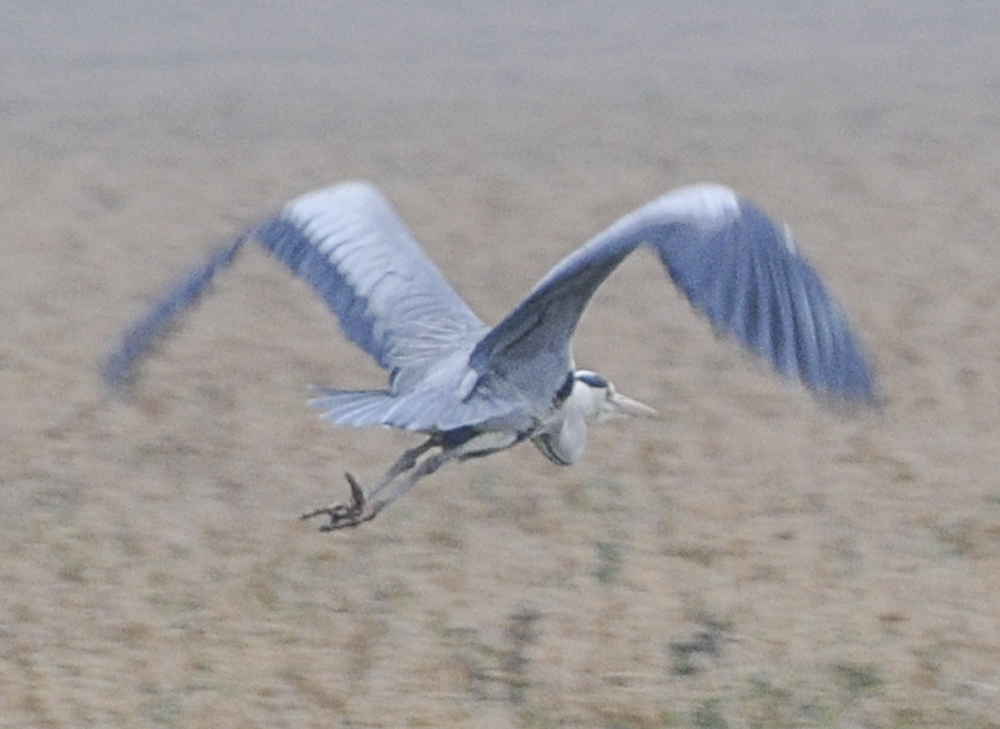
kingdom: Animalia
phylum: Chordata
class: Aves
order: Pelecaniformes
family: Ardeidae
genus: Ardea
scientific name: Ardea cinerea
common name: Grey heron
